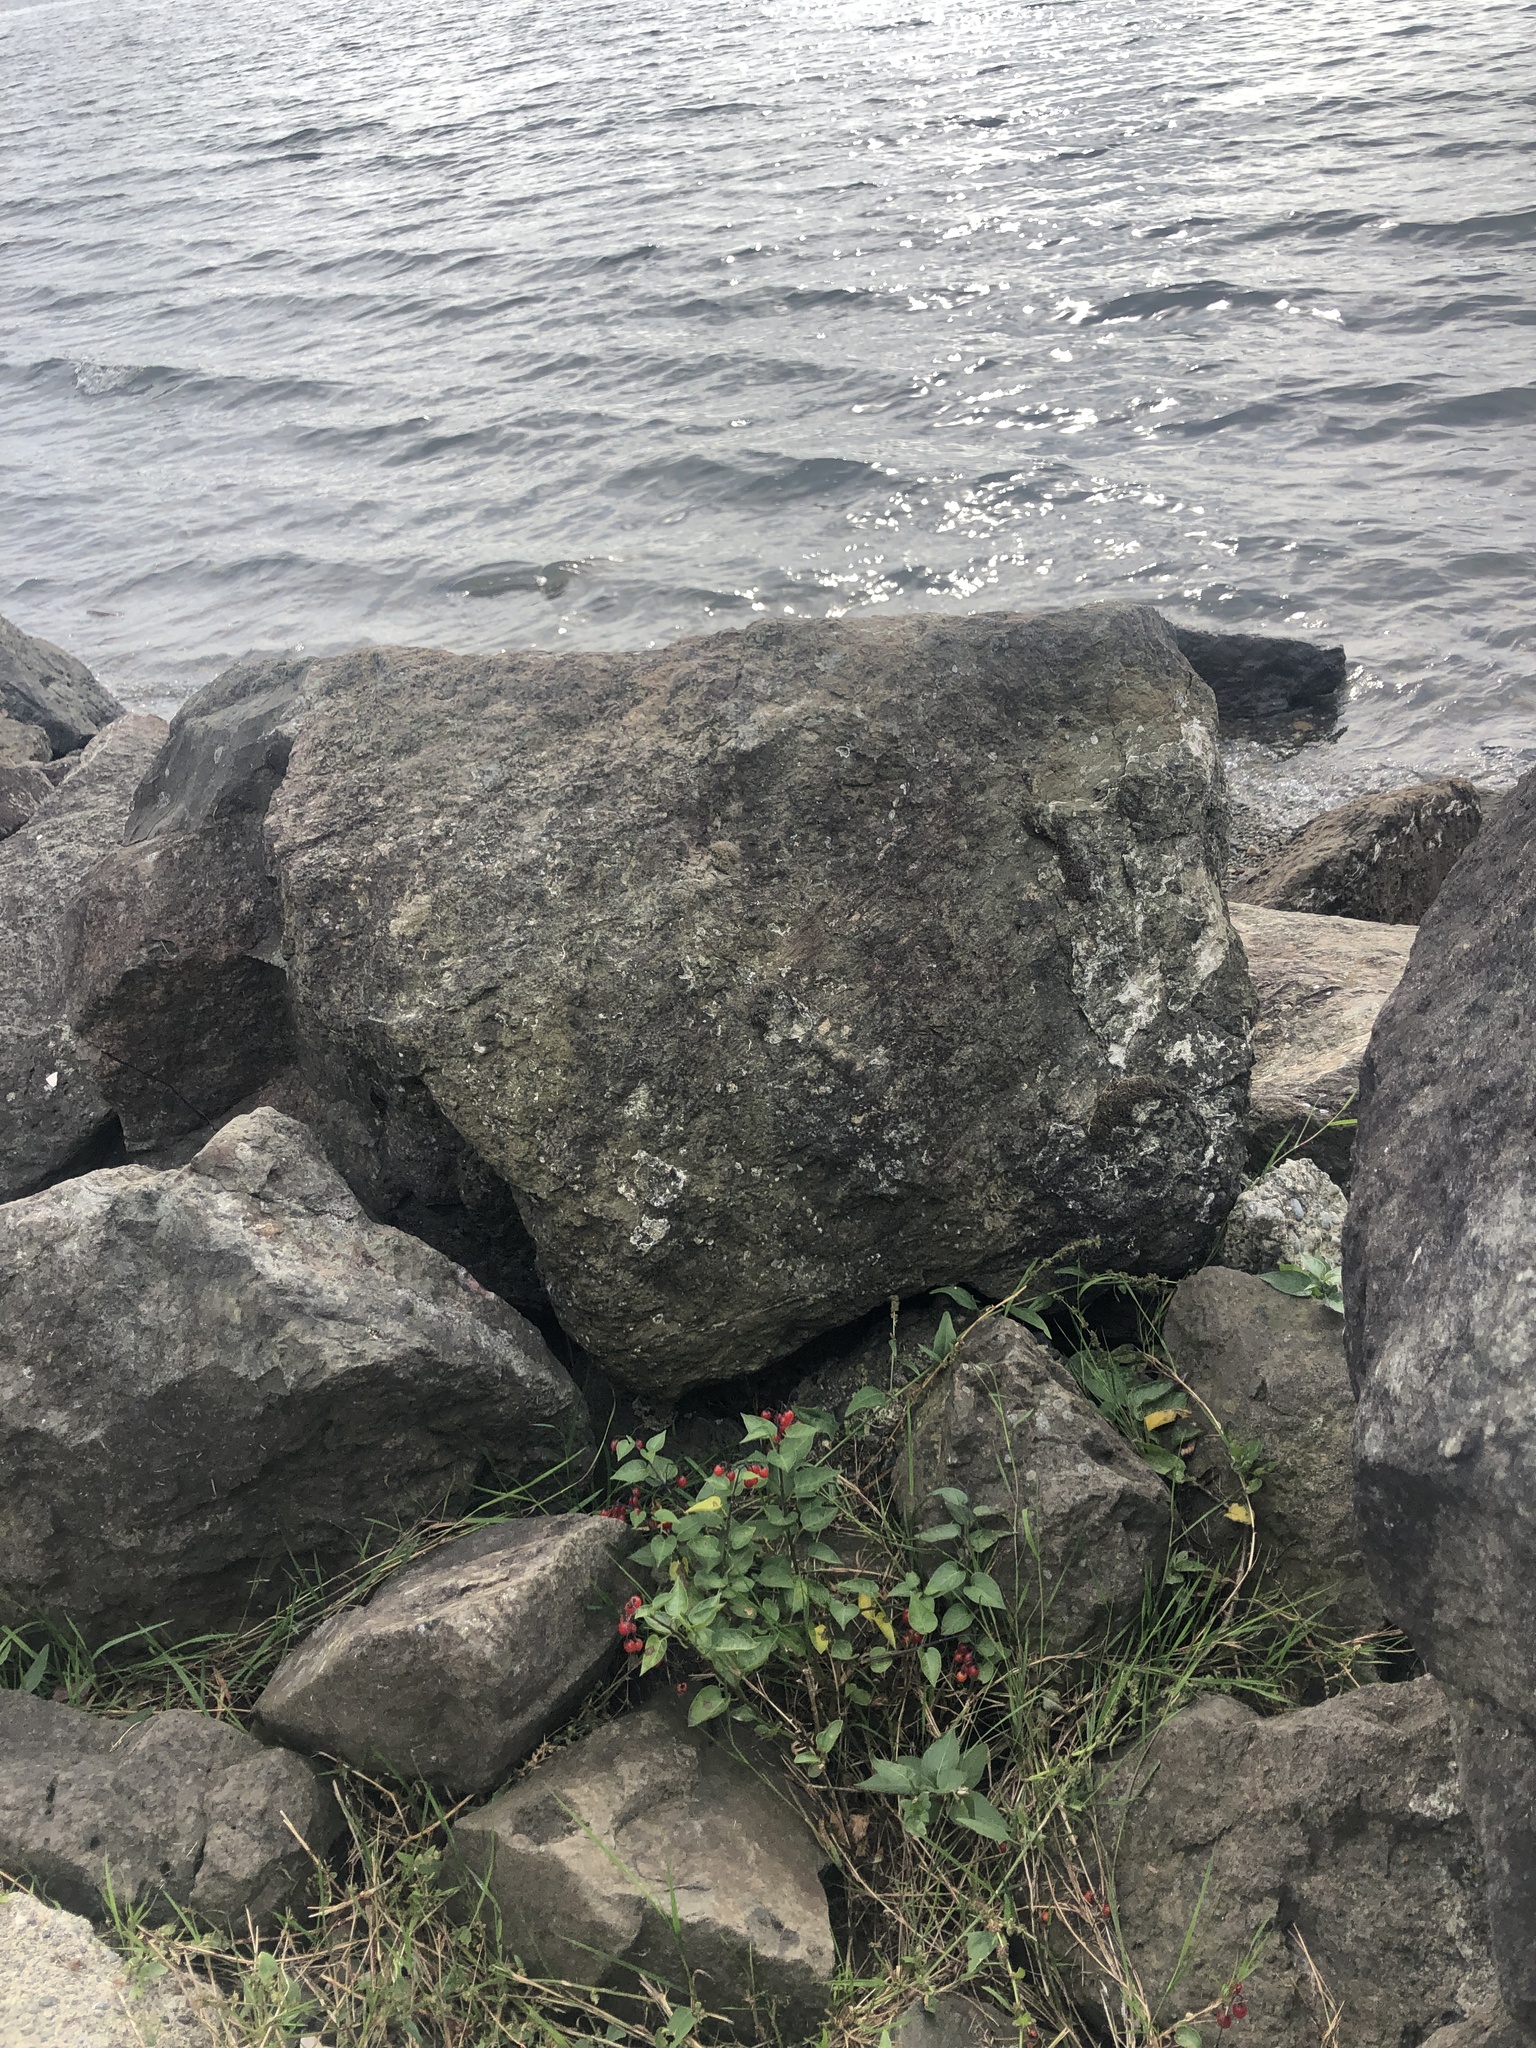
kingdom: Plantae
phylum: Tracheophyta
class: Magnoliopsida
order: Solanales
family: Solanaceae
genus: Solanum
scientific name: Solanum dulcamara
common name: Climbing nightshade
